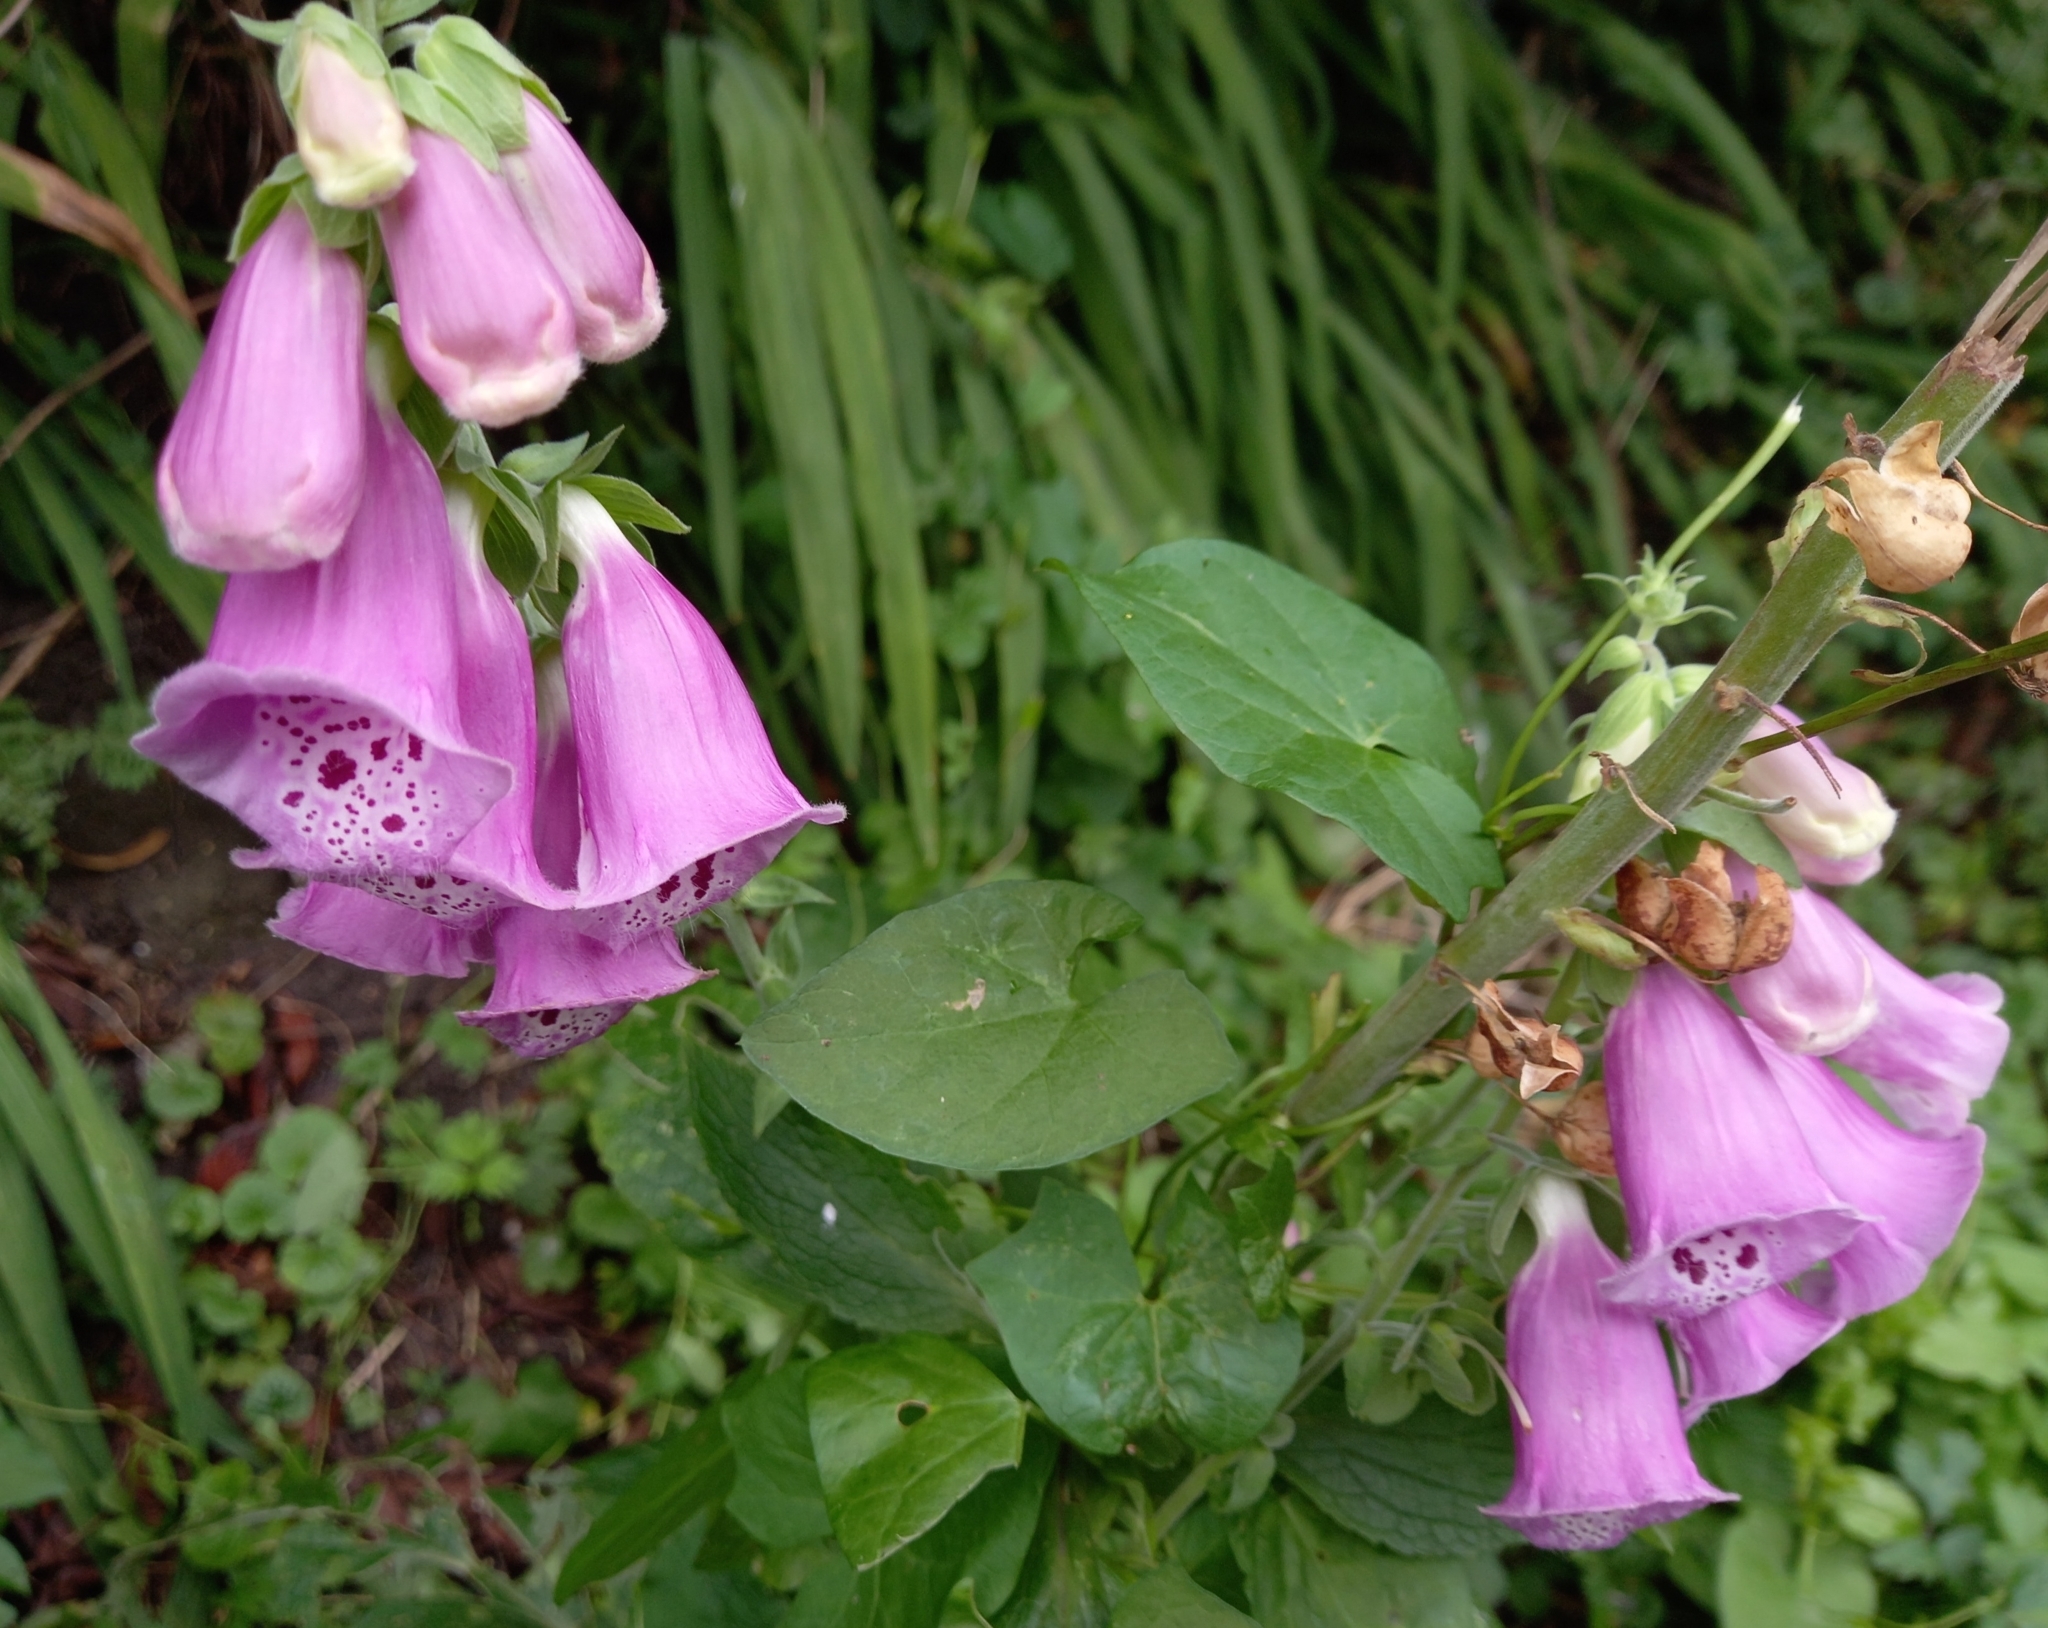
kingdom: Plantae
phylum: Tracheophyta
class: Magnoliopsida
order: Lamiales
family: Plantaginaceae
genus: Digitalis
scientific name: Digitalis purpurea
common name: Foxglove
